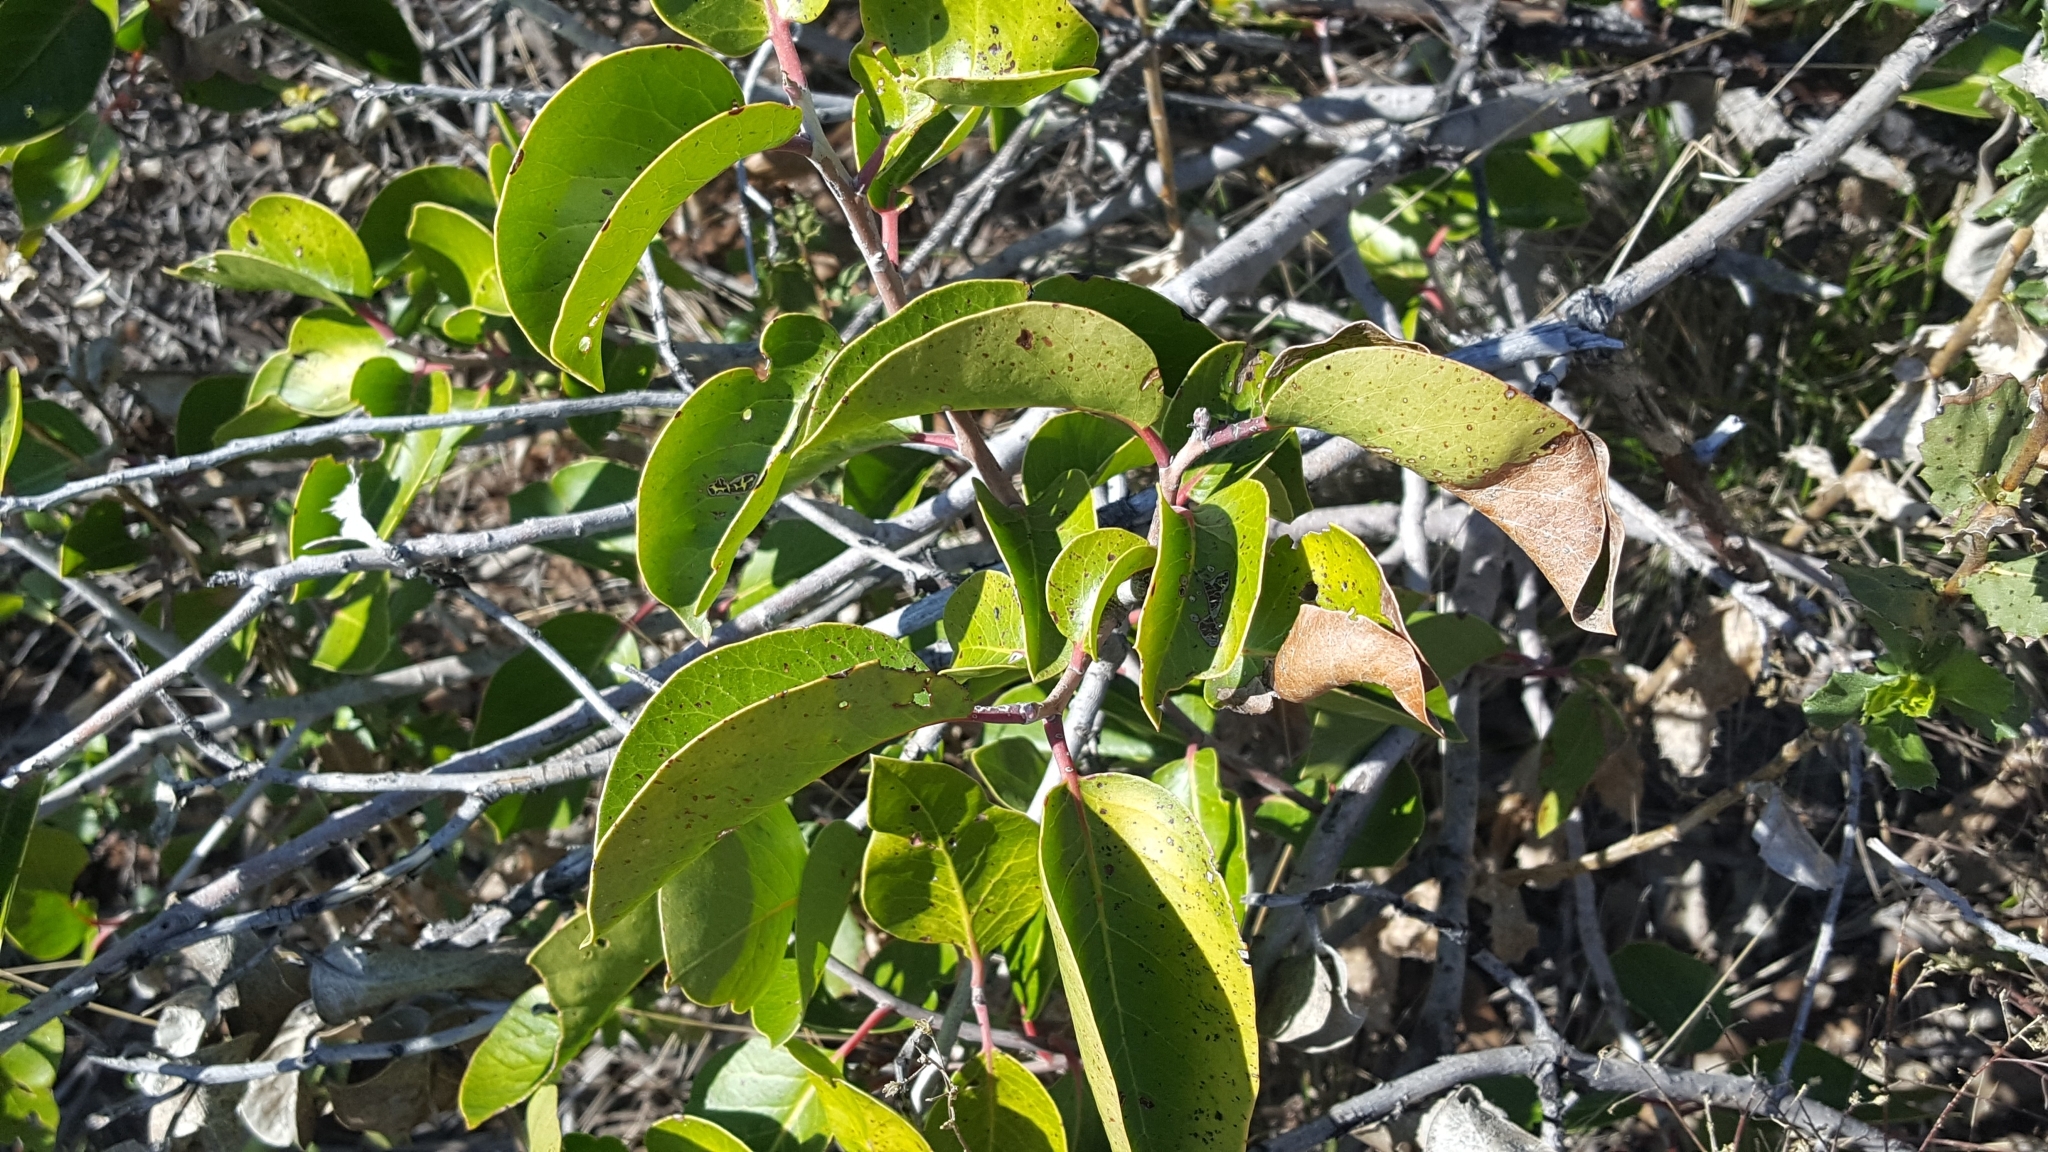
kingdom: Plantae
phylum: Tracheophyta
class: Magnoliopsida
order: Sapindales
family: Anacardiaceae
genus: Rhus
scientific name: Rhus ovata
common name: Sugar sumac
